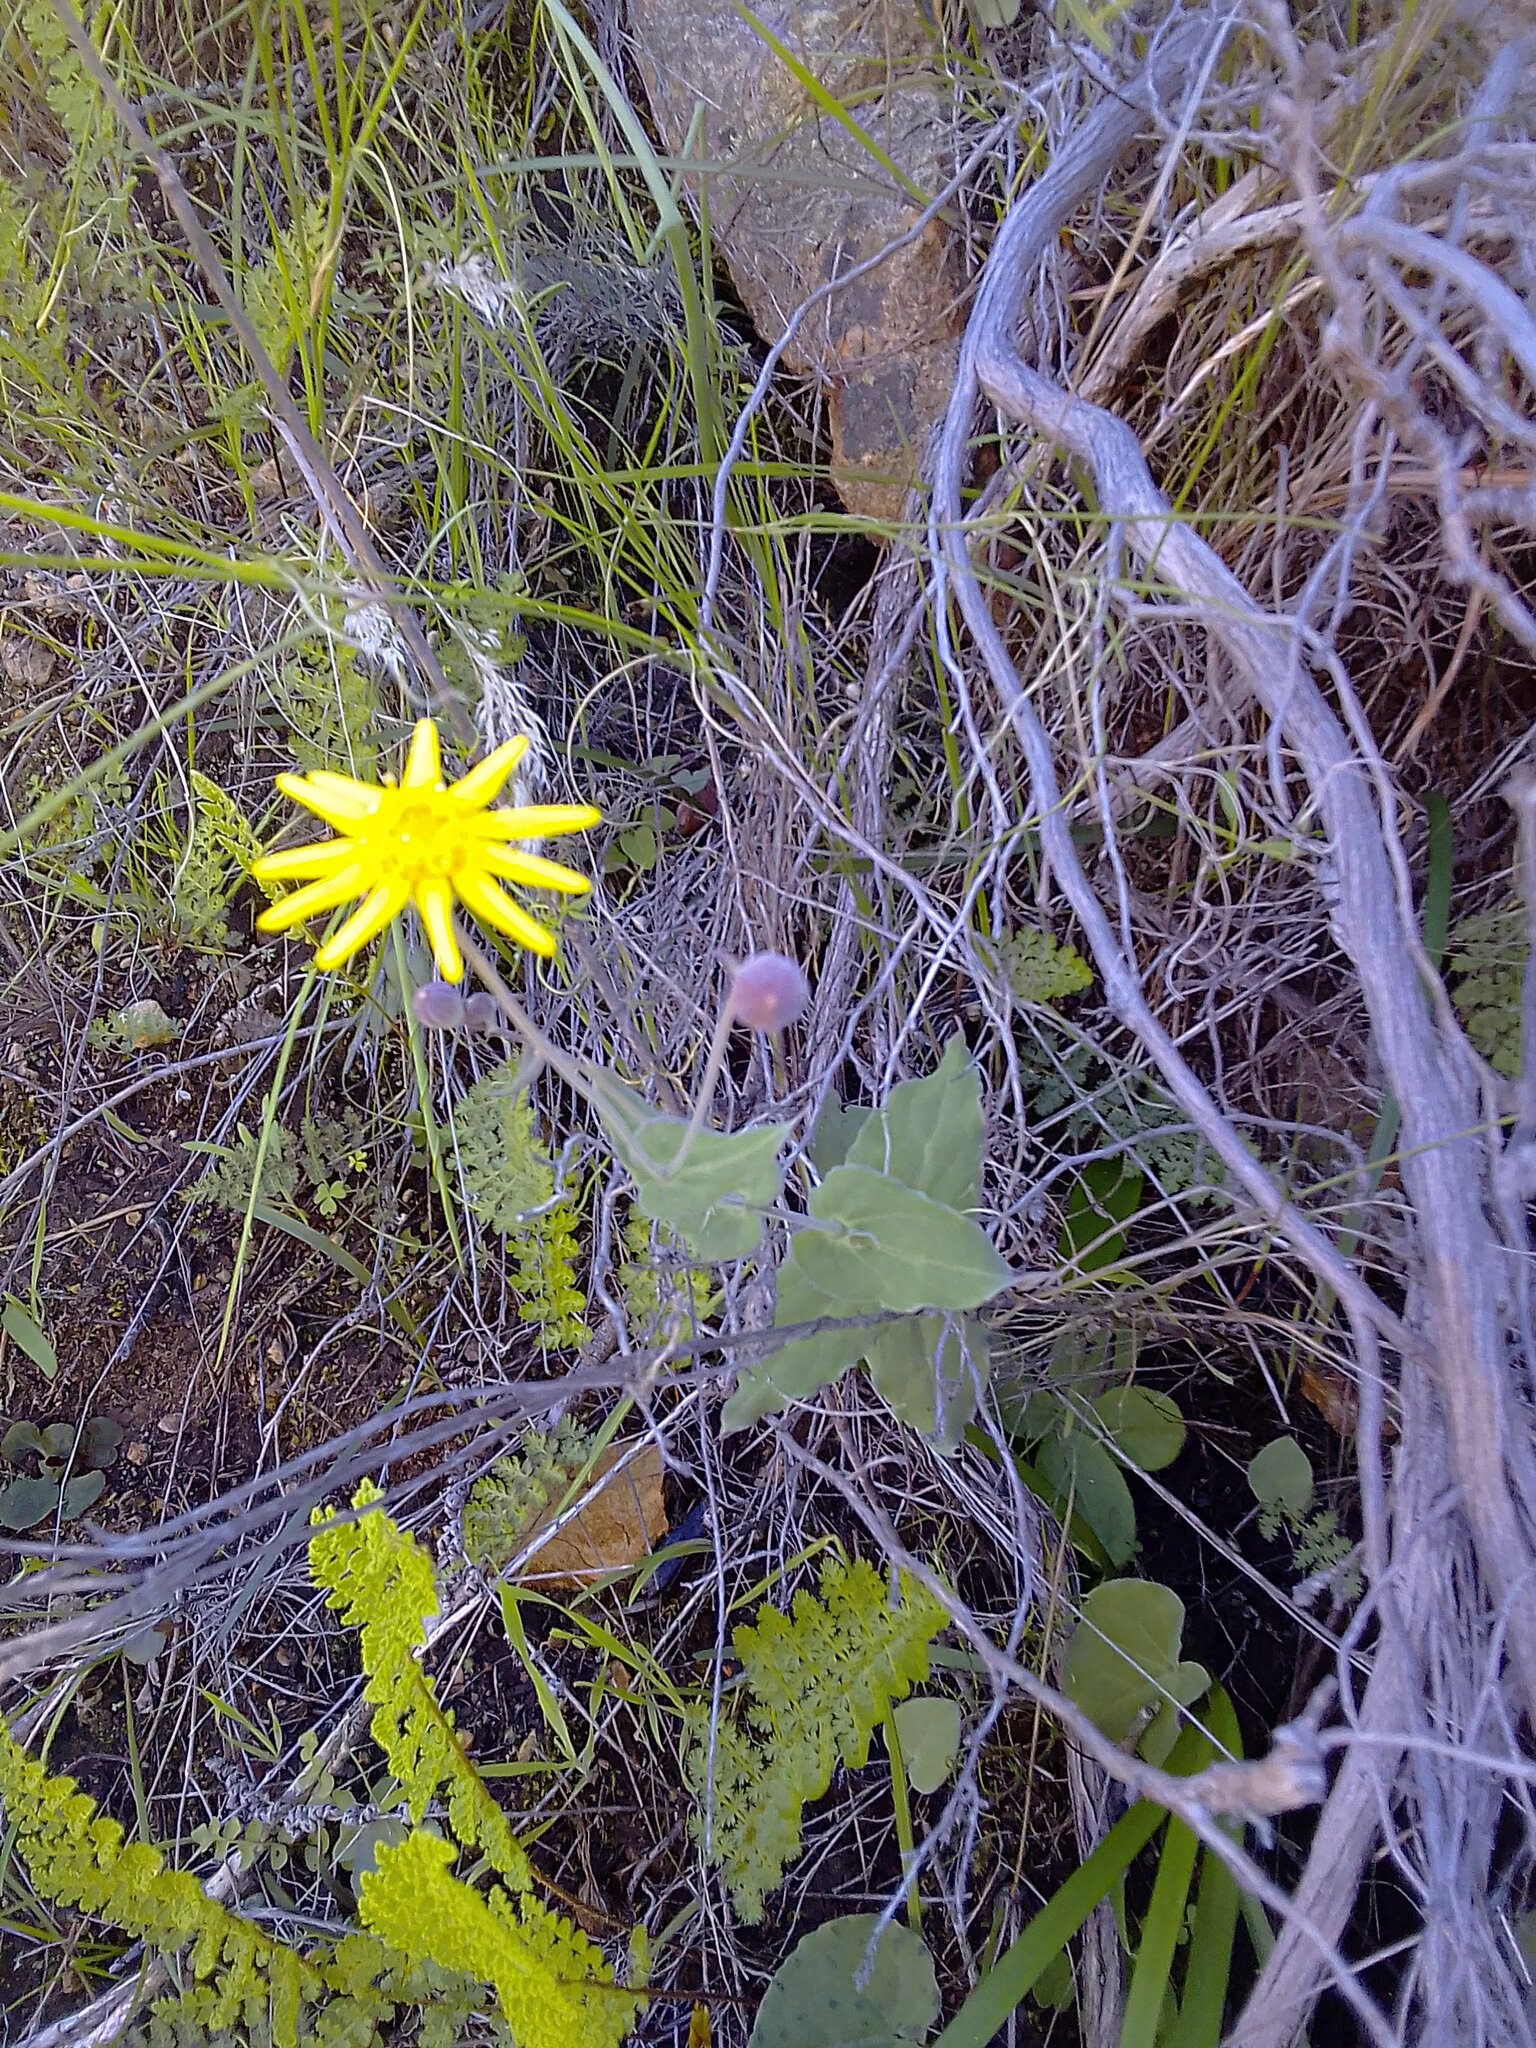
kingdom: Plantae
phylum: Tracheophyta
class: Magnoliopsida
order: Asterales
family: Asteraceae
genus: Othonna
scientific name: Othonna perfoliata
